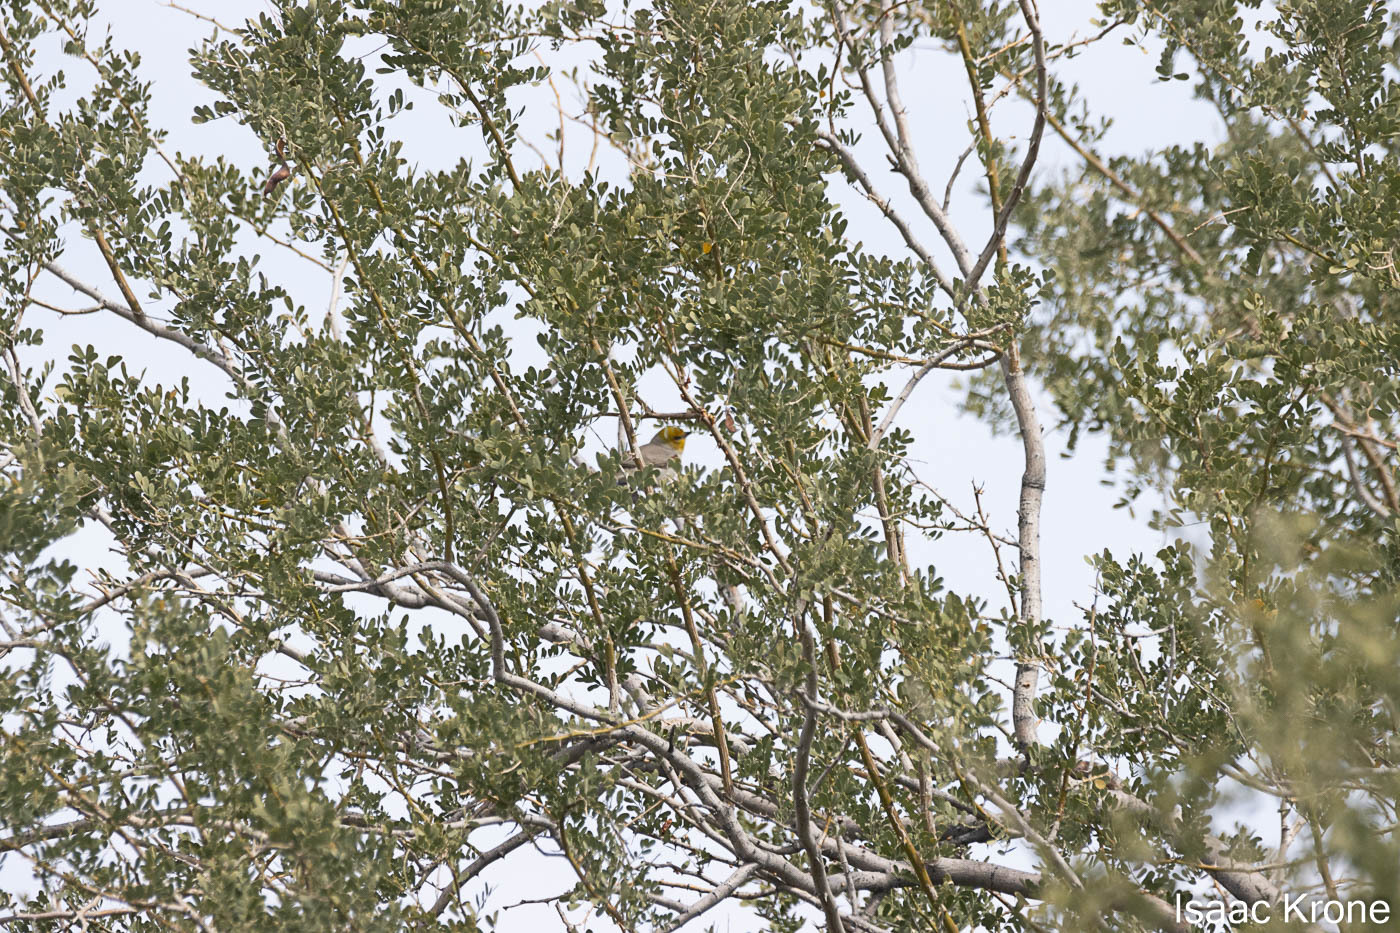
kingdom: Animalia
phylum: Chordata
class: Aves
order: Passeriformes
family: Remizidae
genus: Auriparus
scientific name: Auriparus flaviceps
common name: Verdin
